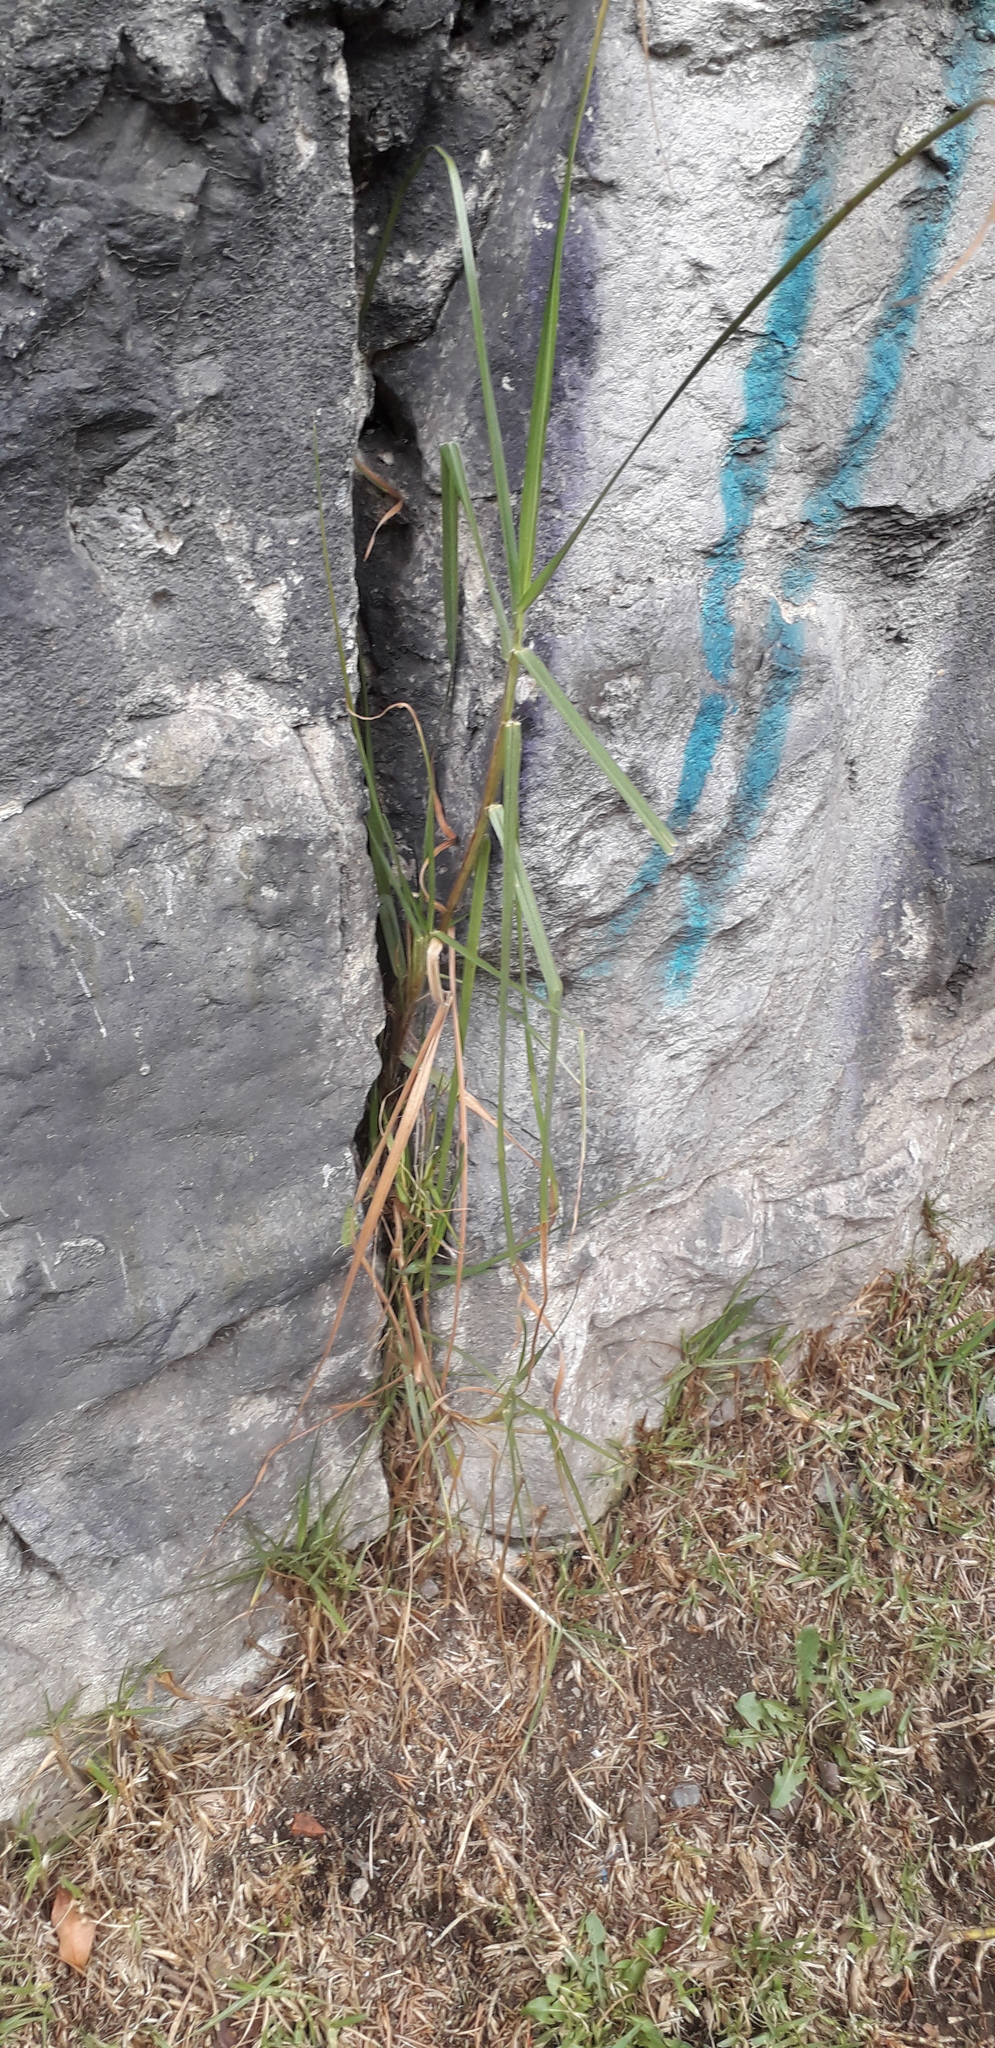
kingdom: Plantae
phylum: Tracheophyta
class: Liliopsida
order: Poales
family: Poaceae
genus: Cenchrus
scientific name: Cenchrus clandestinus
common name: Kikuyugrass
